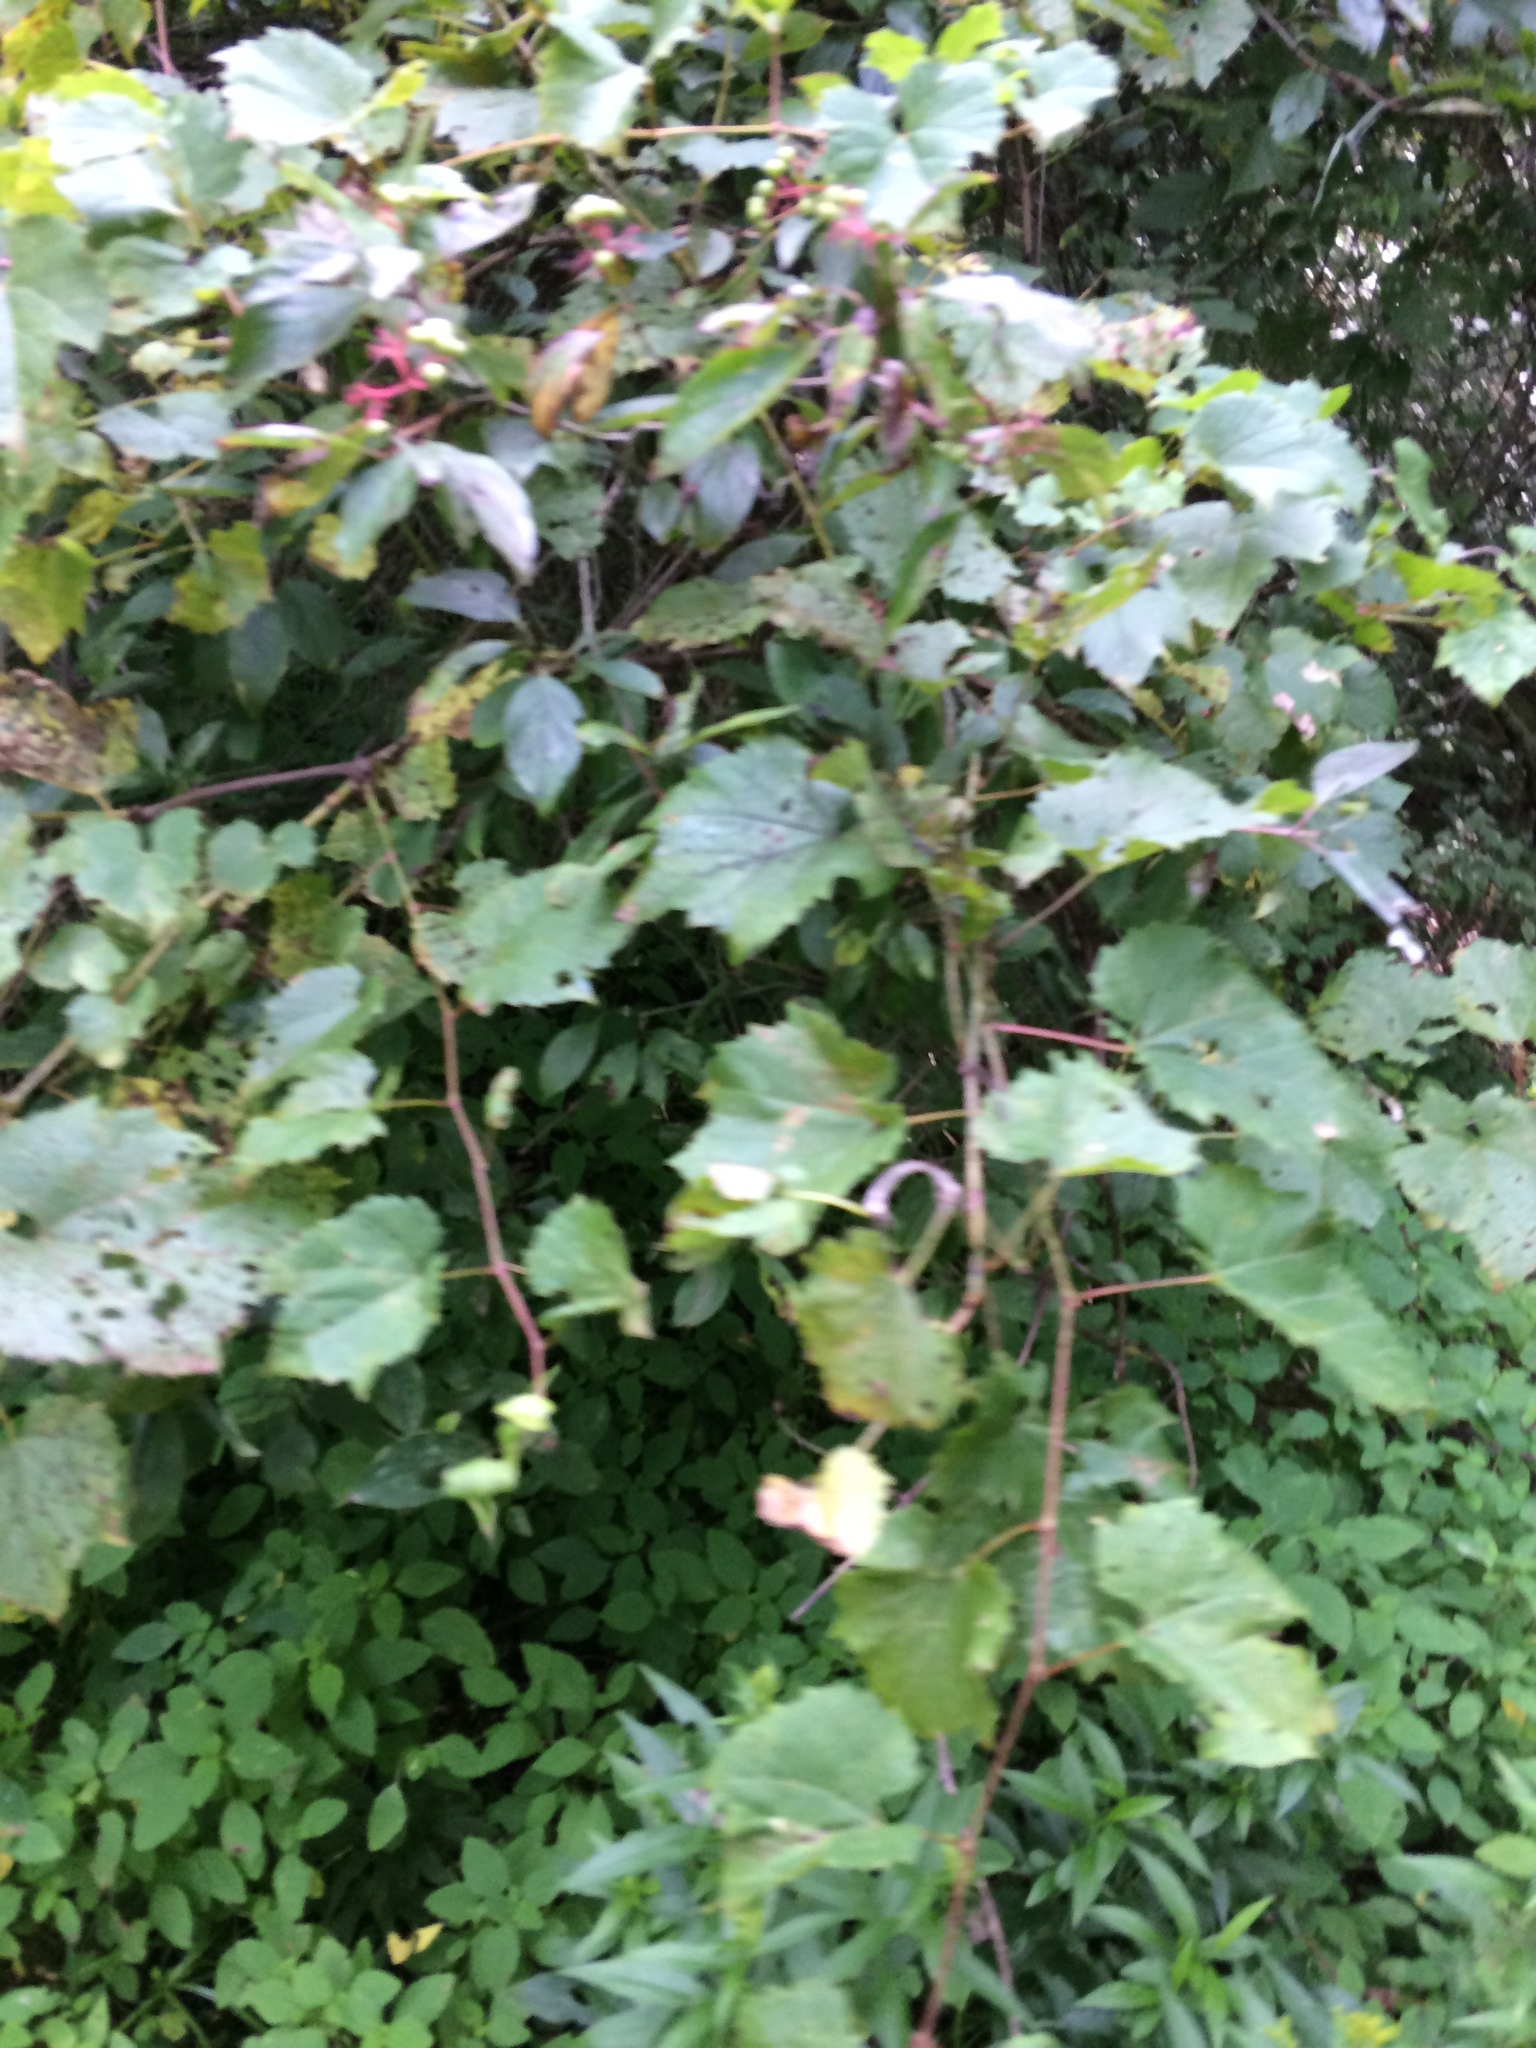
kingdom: Plantae
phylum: Tracheophyta
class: Magnoliopsida
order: Vitales
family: Vitaceae
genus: Vitis
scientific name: Vitis riparia
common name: Frost grape
